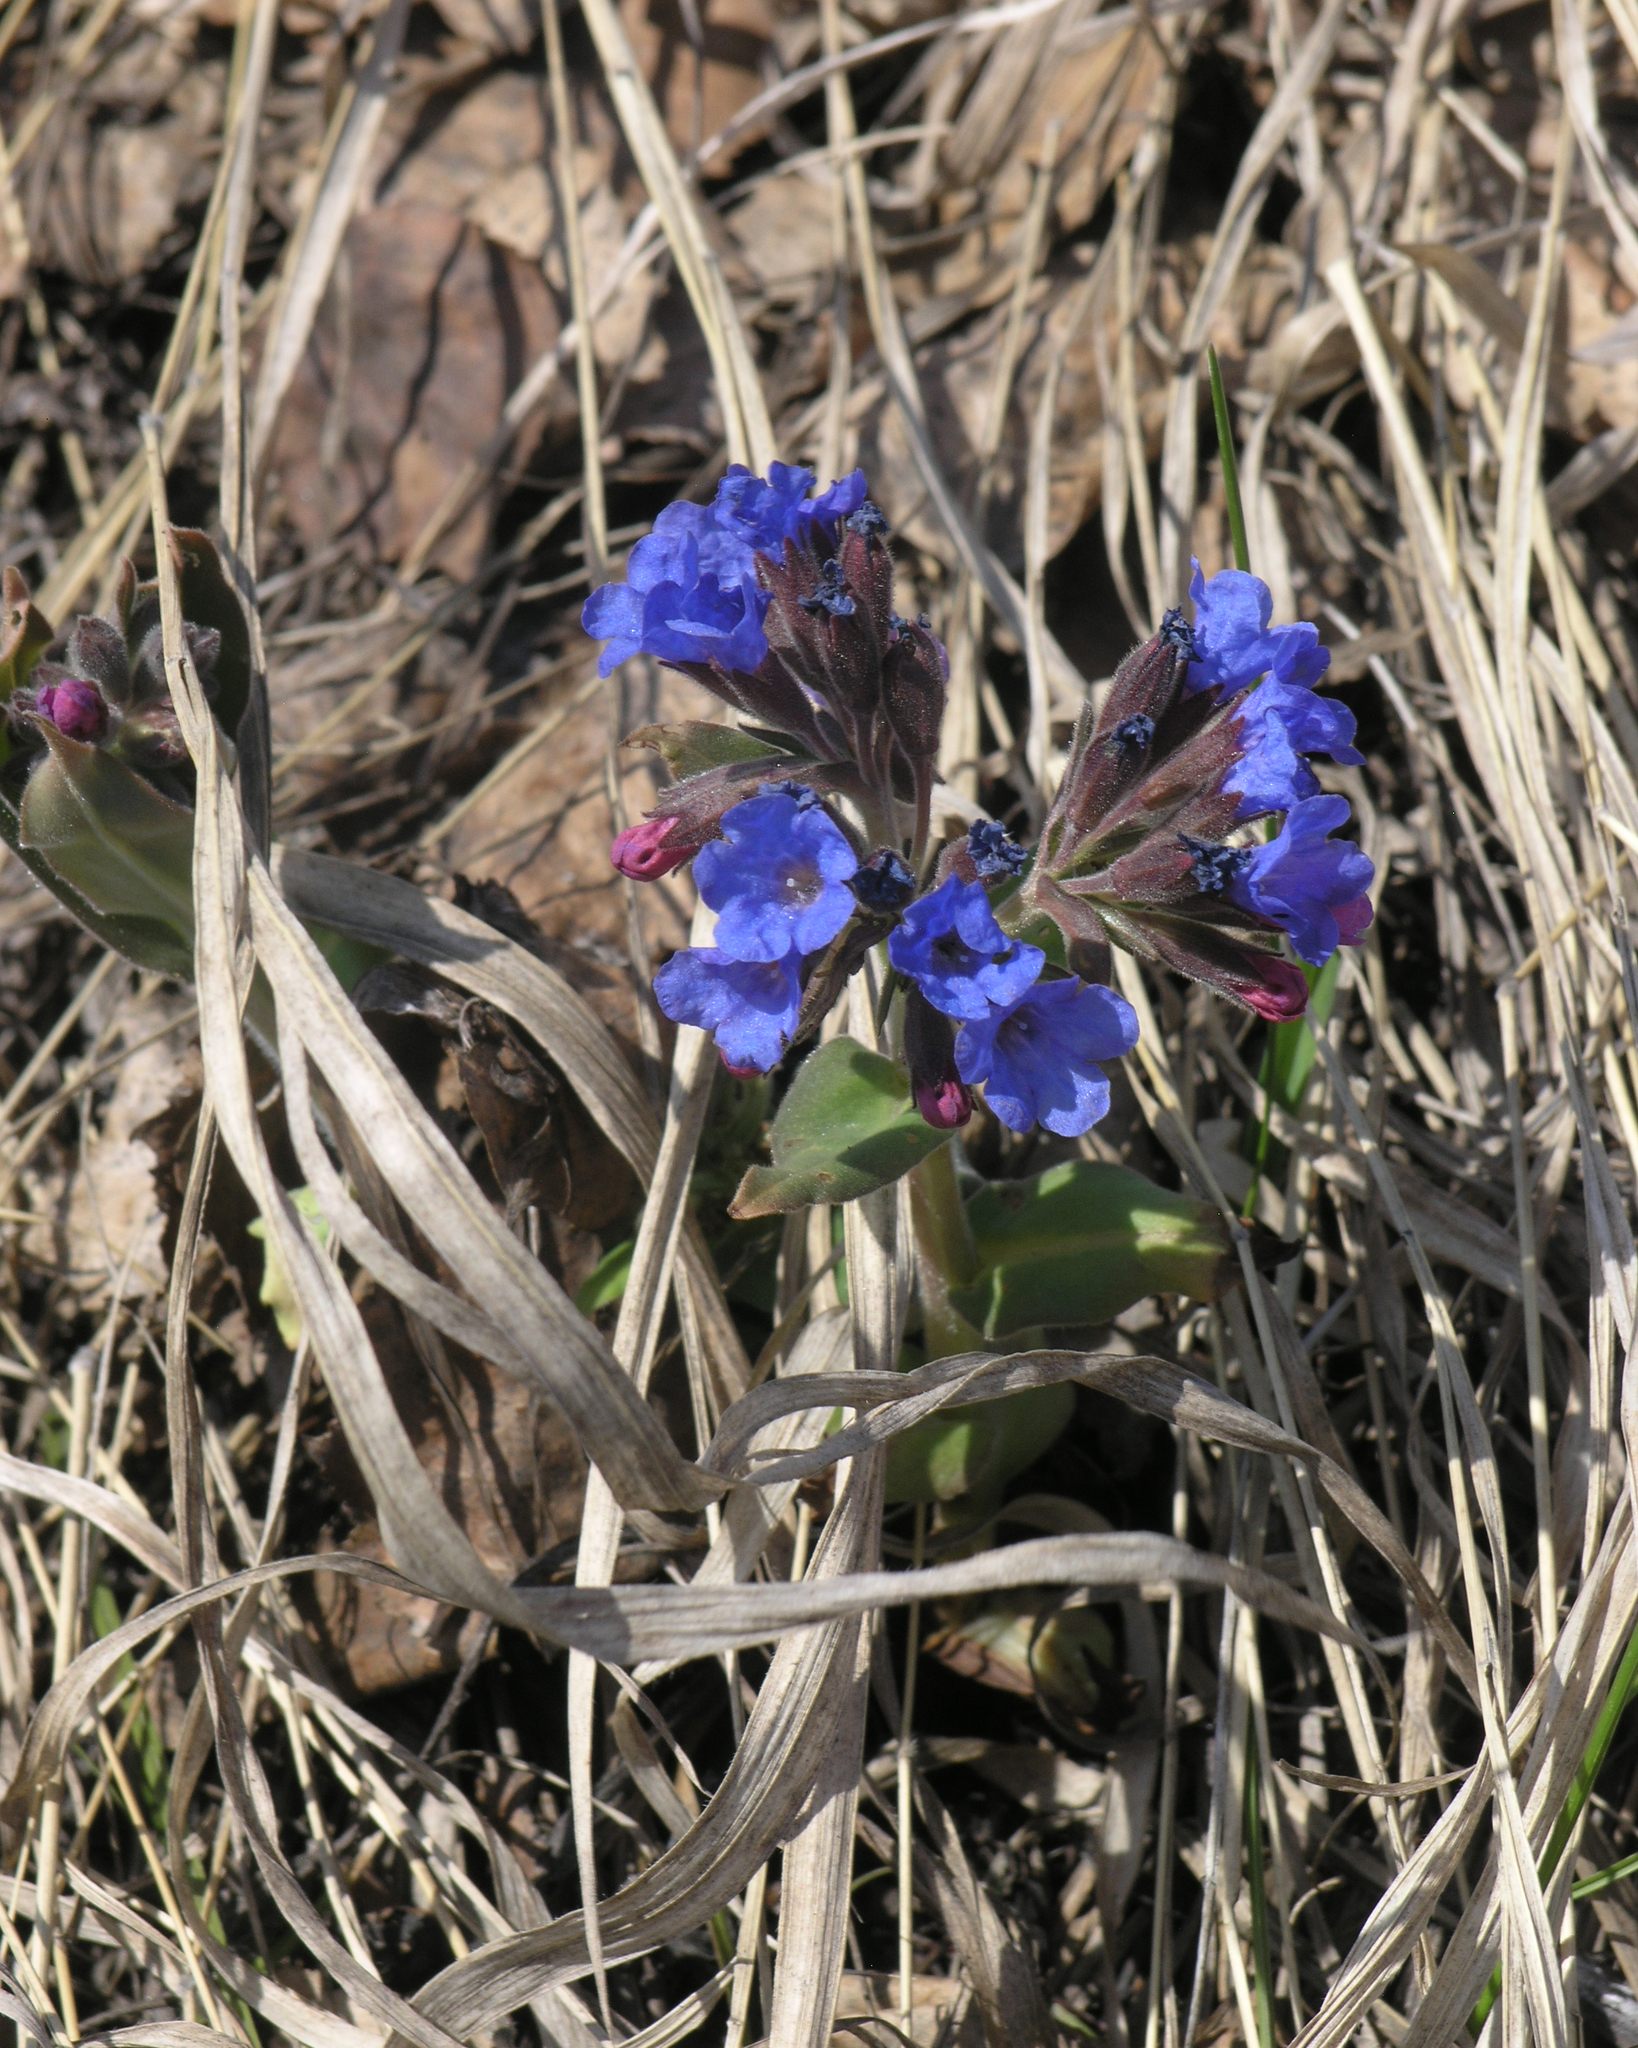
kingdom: Plantae
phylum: Tracheophyta
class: Magnoliopsida
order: Boraginales
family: Boraginaceae
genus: Pulmonaria
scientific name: Pulmonaria mollis
